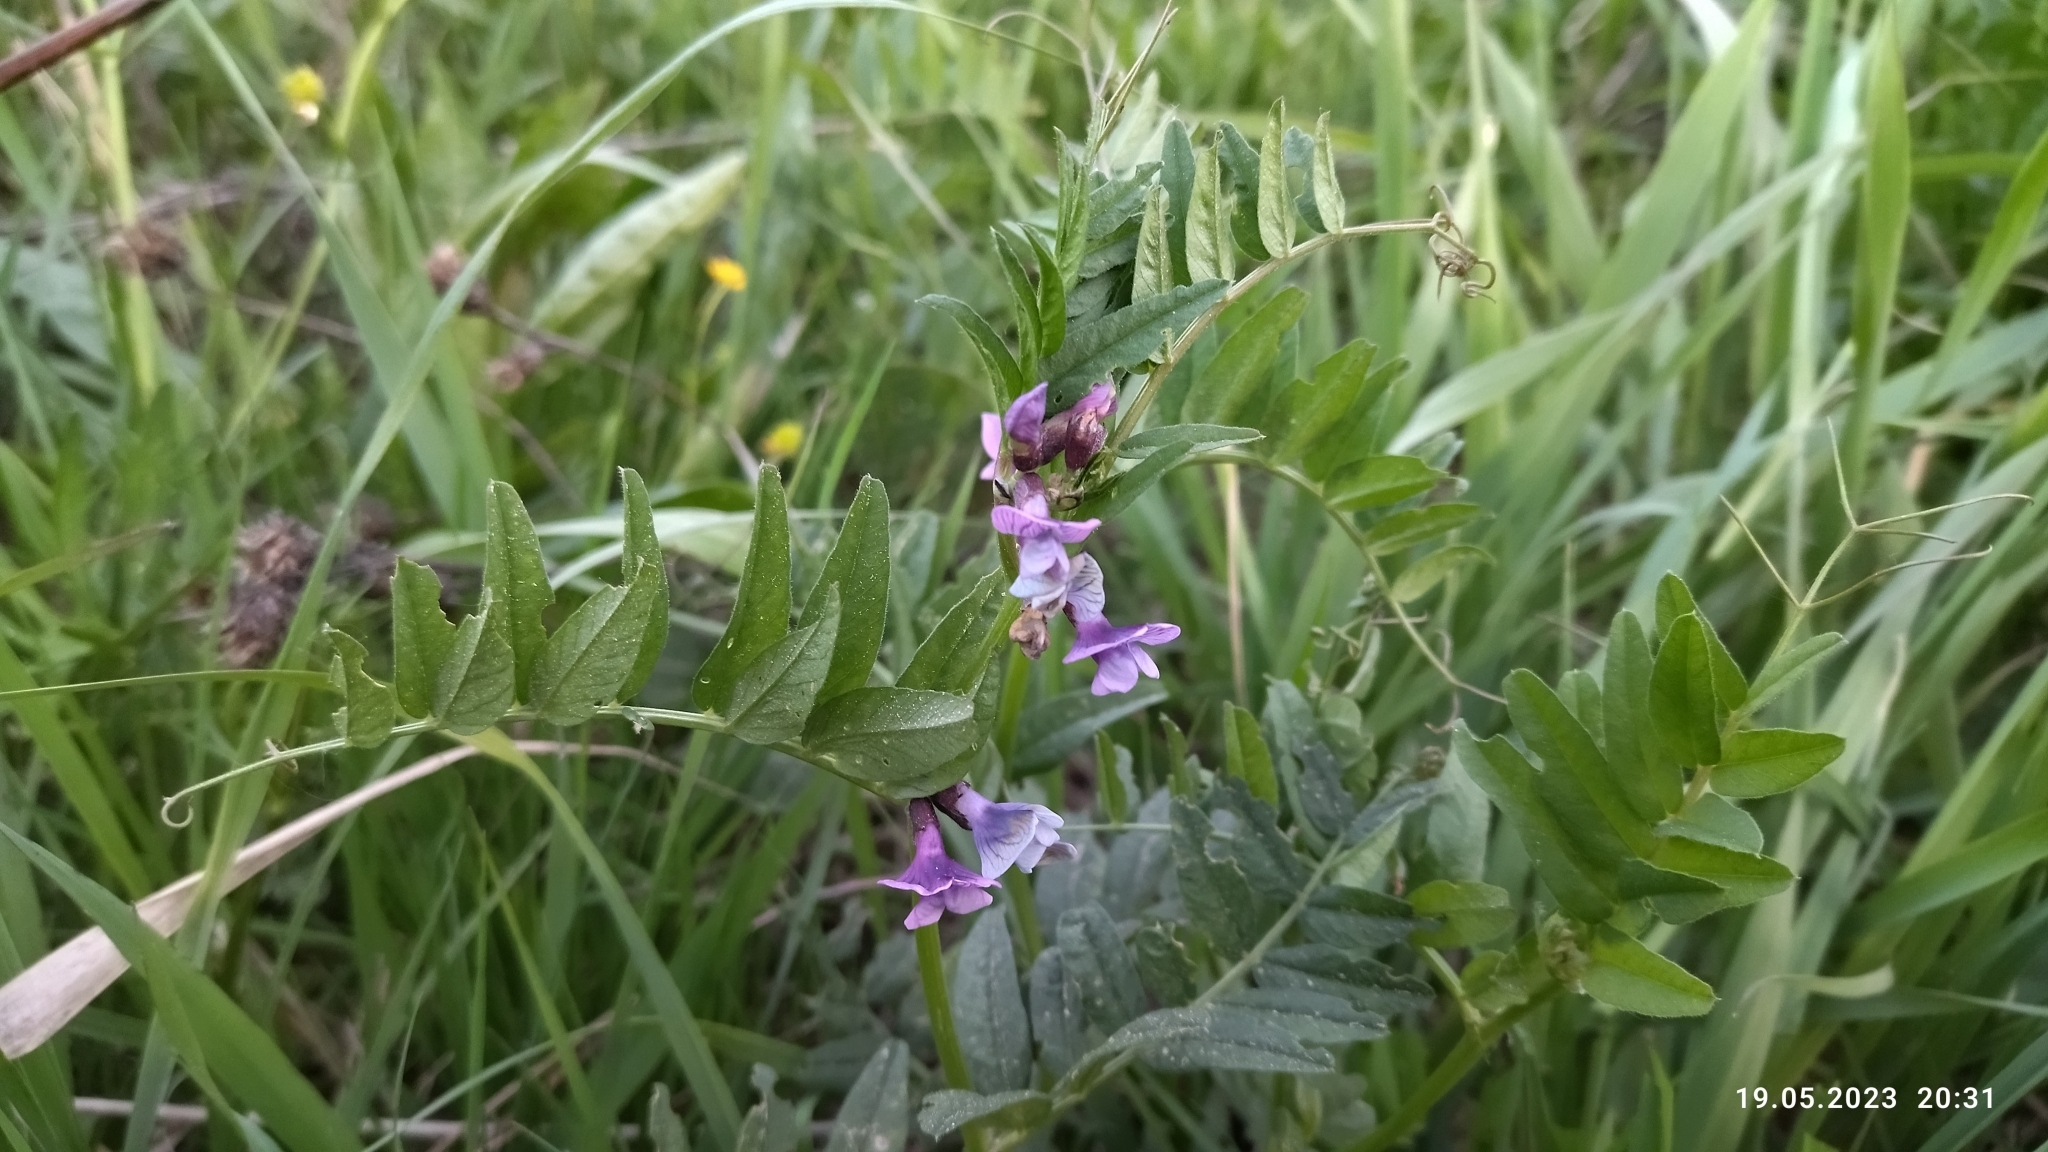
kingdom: Plantae
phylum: Tracheophyta
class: Magnoliopsida
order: Fabales
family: Fabaceae
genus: Vicia
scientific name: Vicia sepium
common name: Bush vetch
